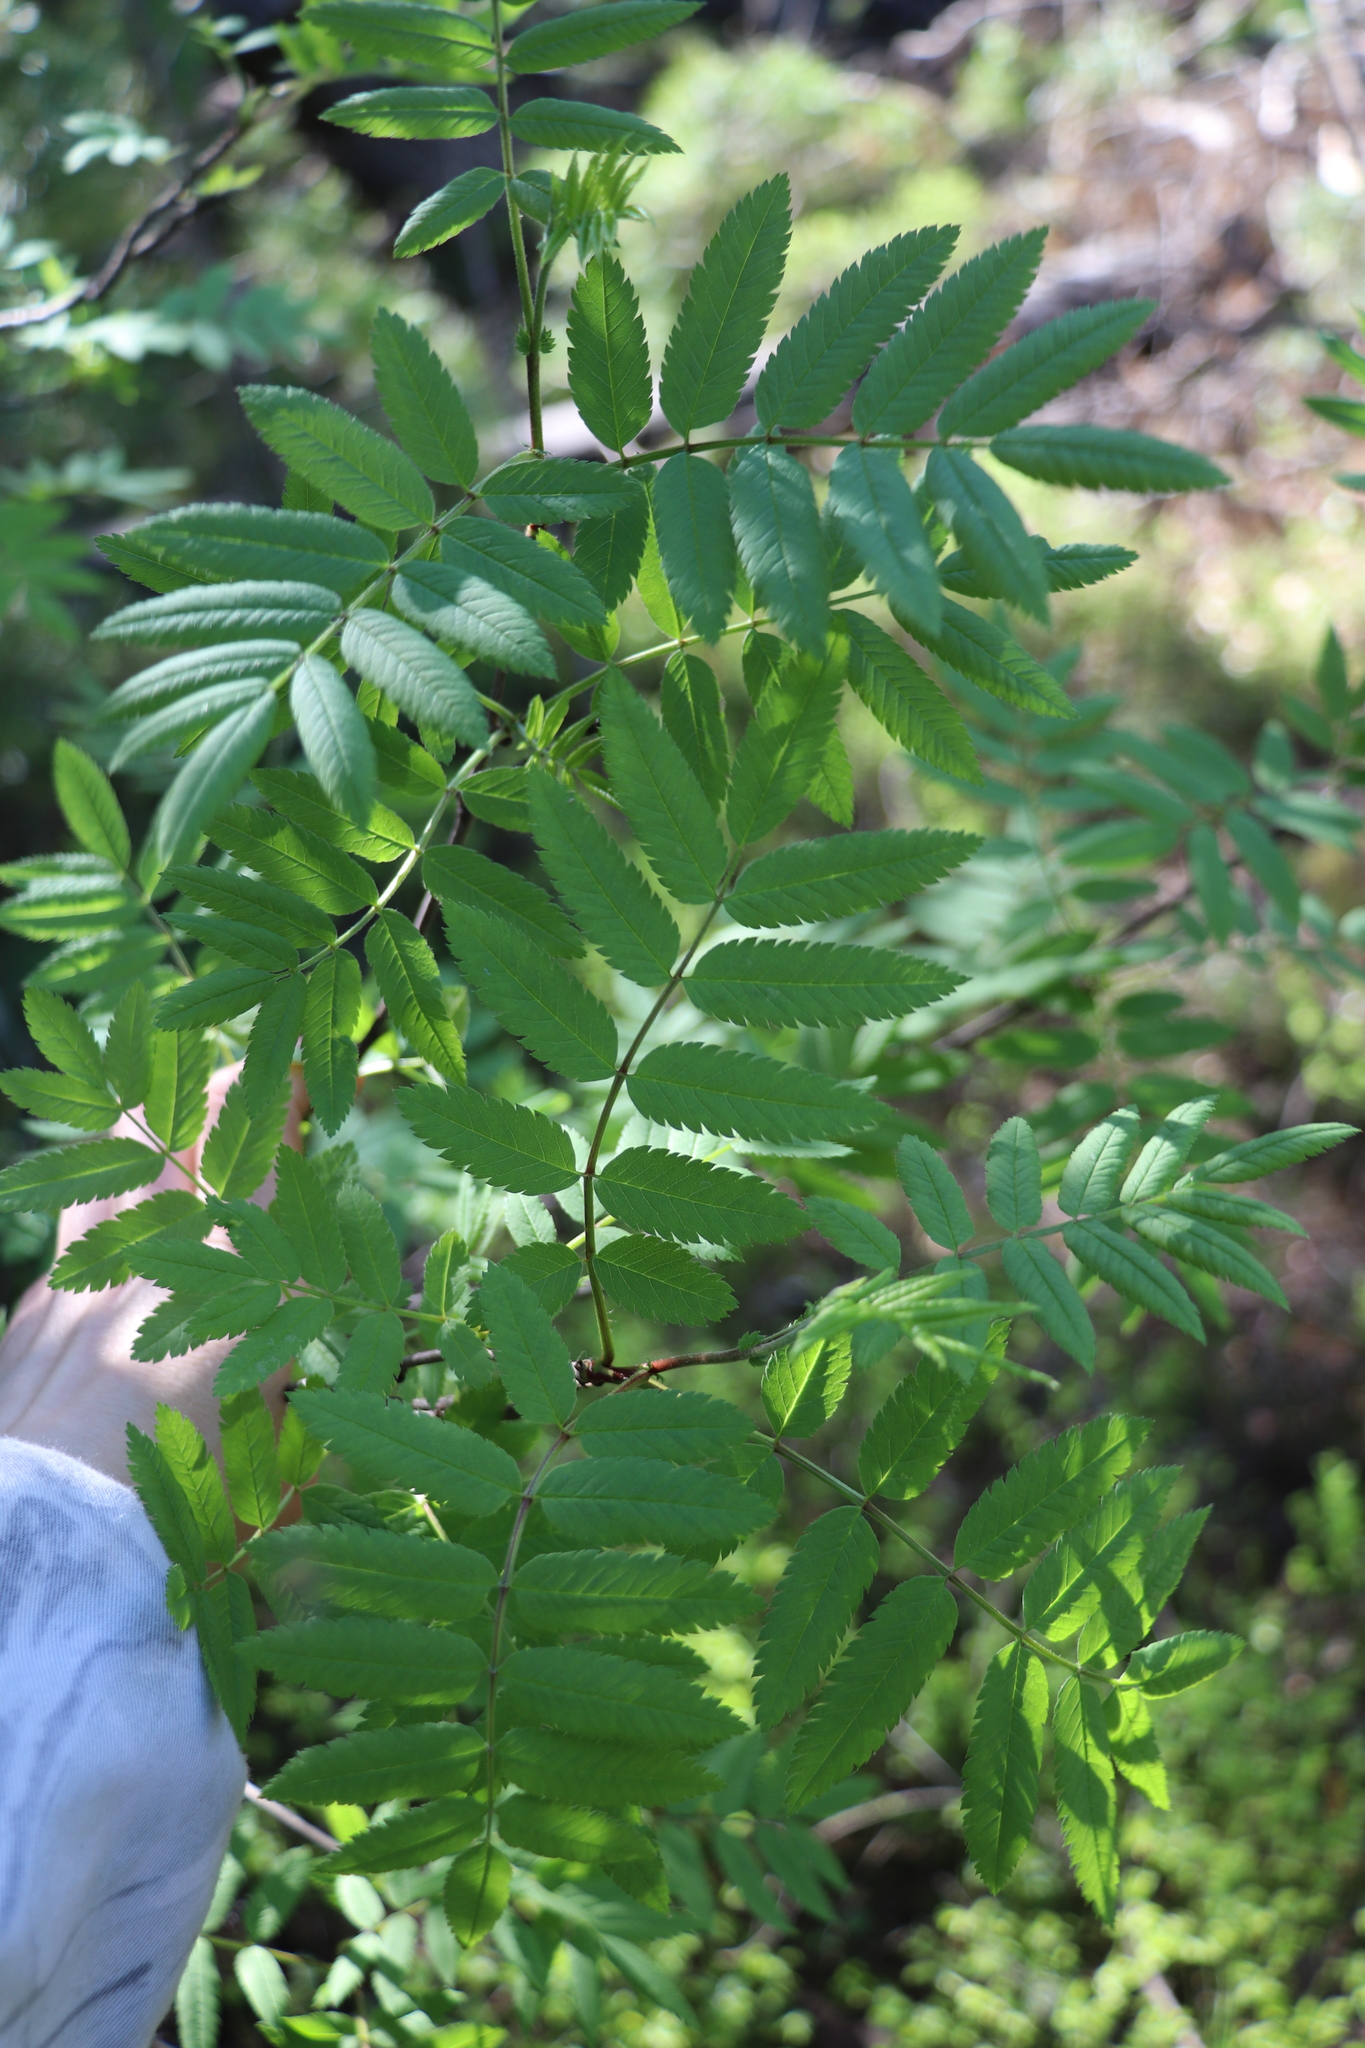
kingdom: Plantae
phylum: Tracheophyta
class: Magnoliopsida
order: Rosales
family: Rosaceae
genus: Sorbus
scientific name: Sorbus aucuparia
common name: Rowan
